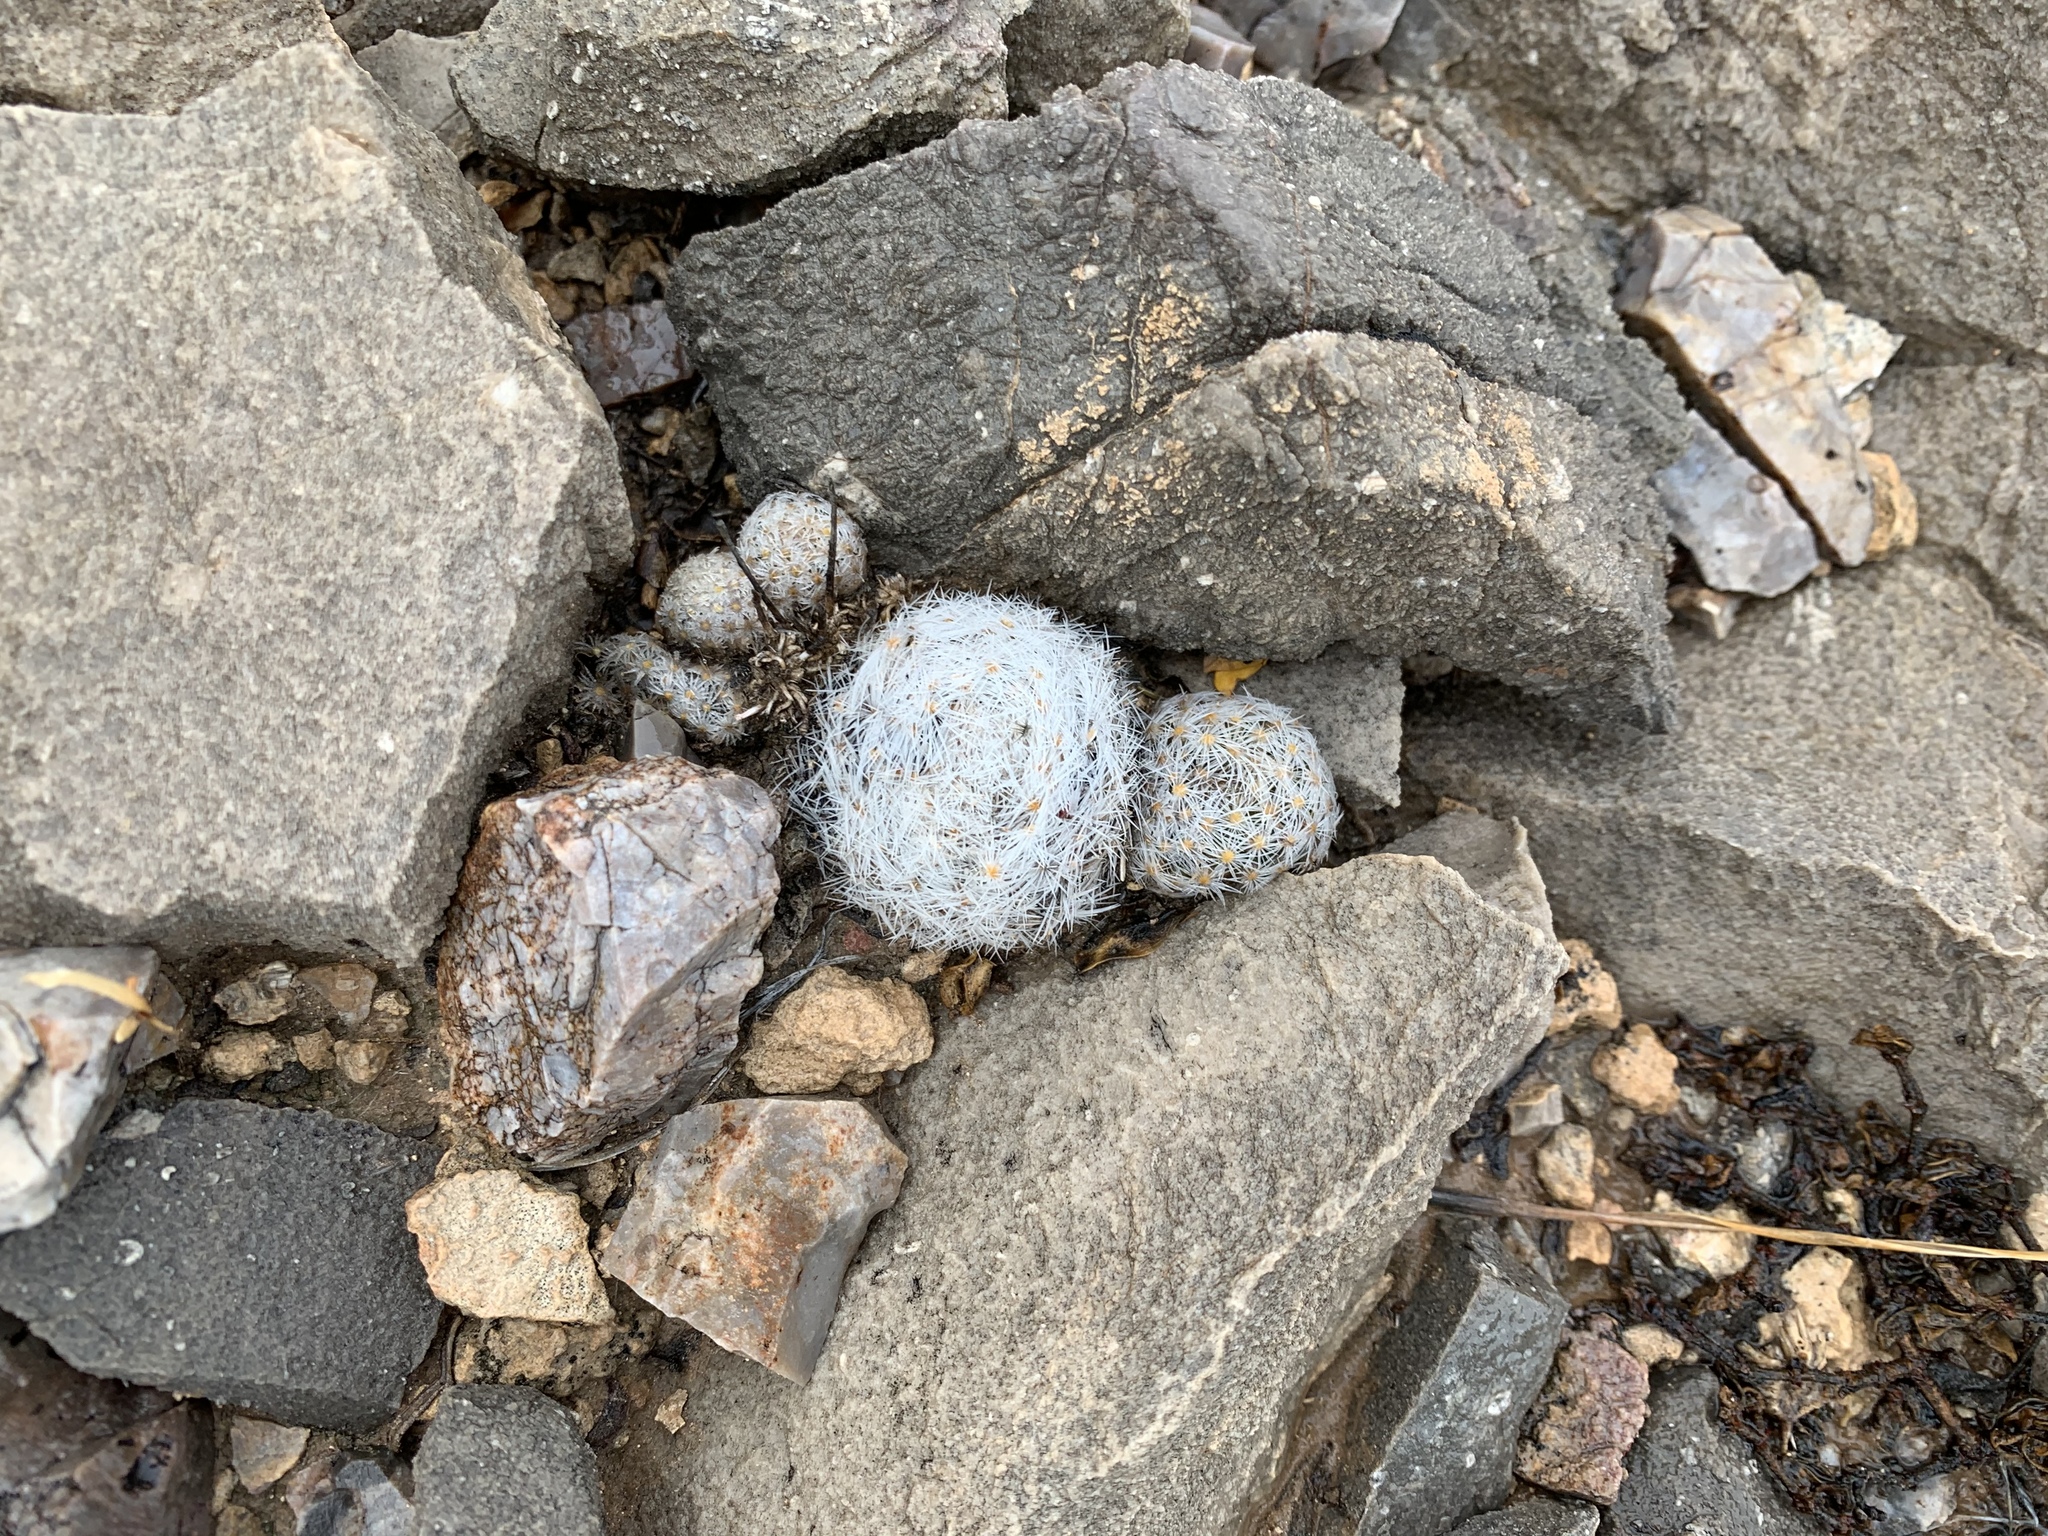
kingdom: Plantae
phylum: Tracheophyta
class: Magnoliopsida
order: Caryophyllales
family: Cactaceae
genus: Mammillaria
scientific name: Mammillaria lasiacantha
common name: Lace-spine nipple cactus
